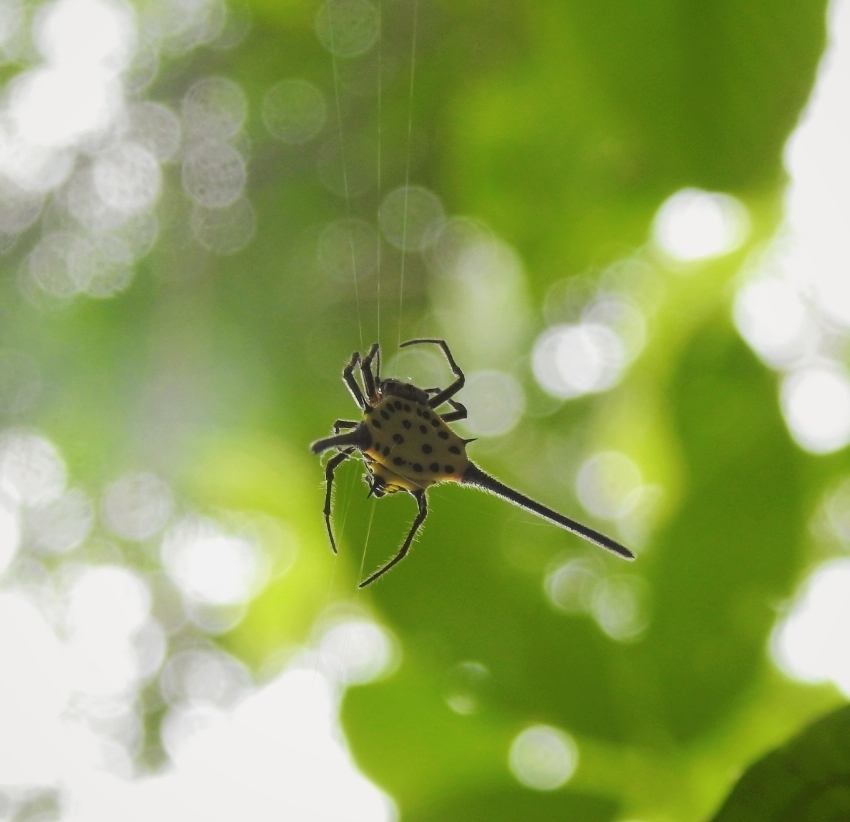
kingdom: Animalia
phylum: Arthropoda
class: Arachnida
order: Araneae
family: Araneidae
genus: Gasteracantha
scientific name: Gasteracantha dalyi
